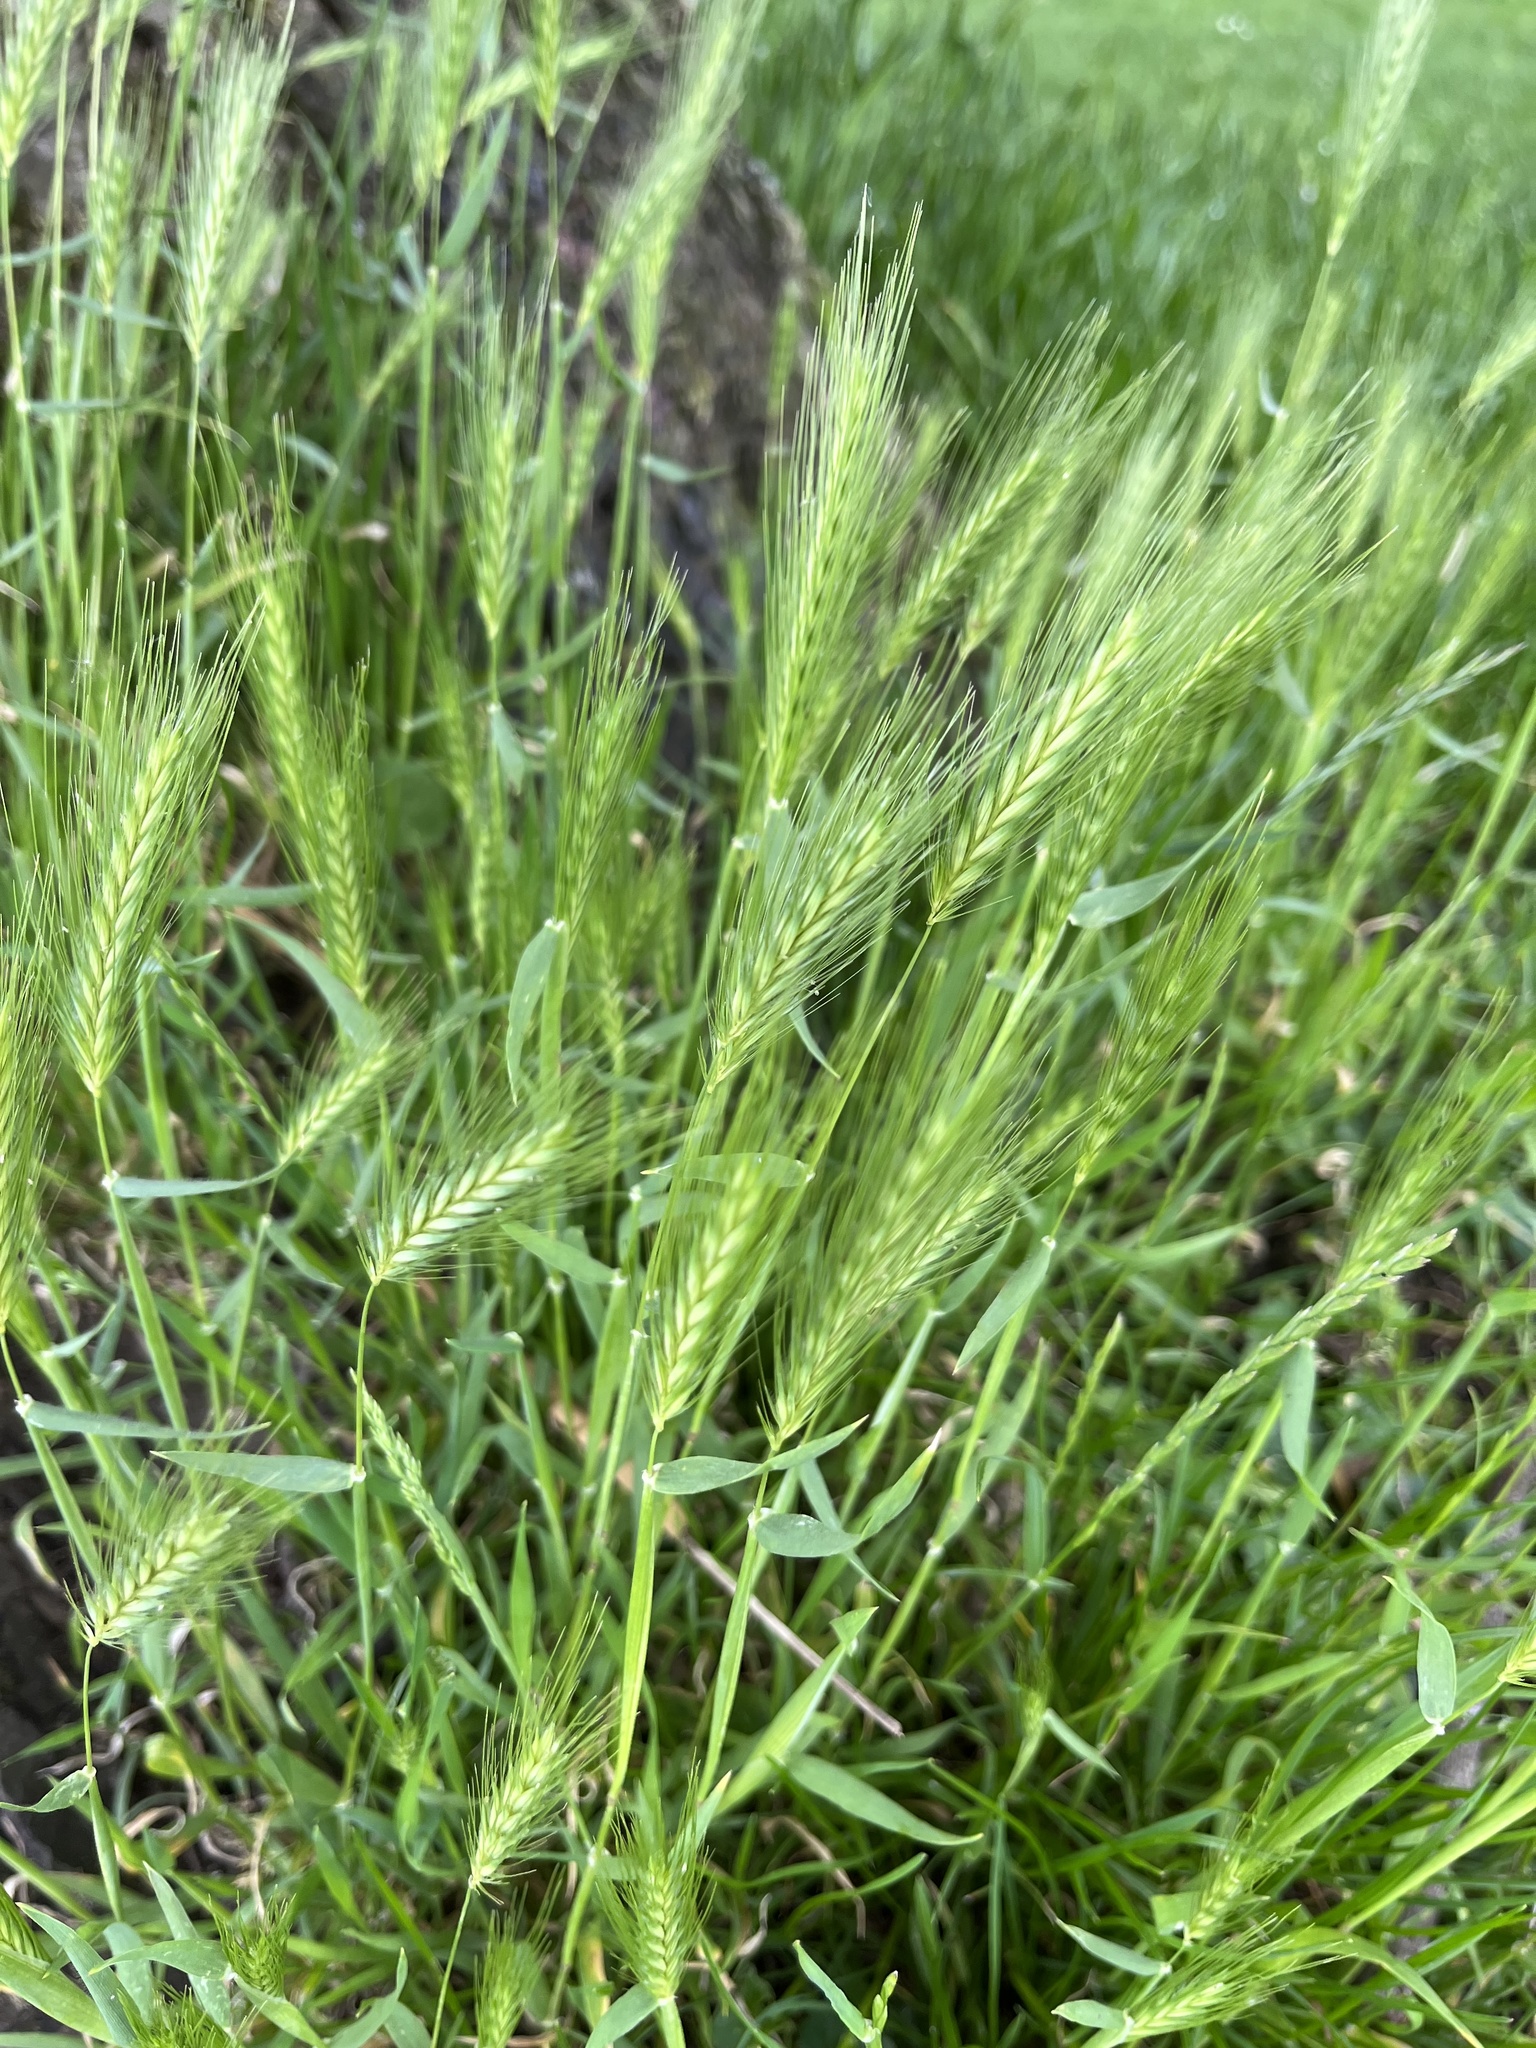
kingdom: Plantae
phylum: Tracheophyta
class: Liliopsida
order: Poales
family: Poaceae
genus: Hordeum
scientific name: Hordeum murinum
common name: Wall barley
